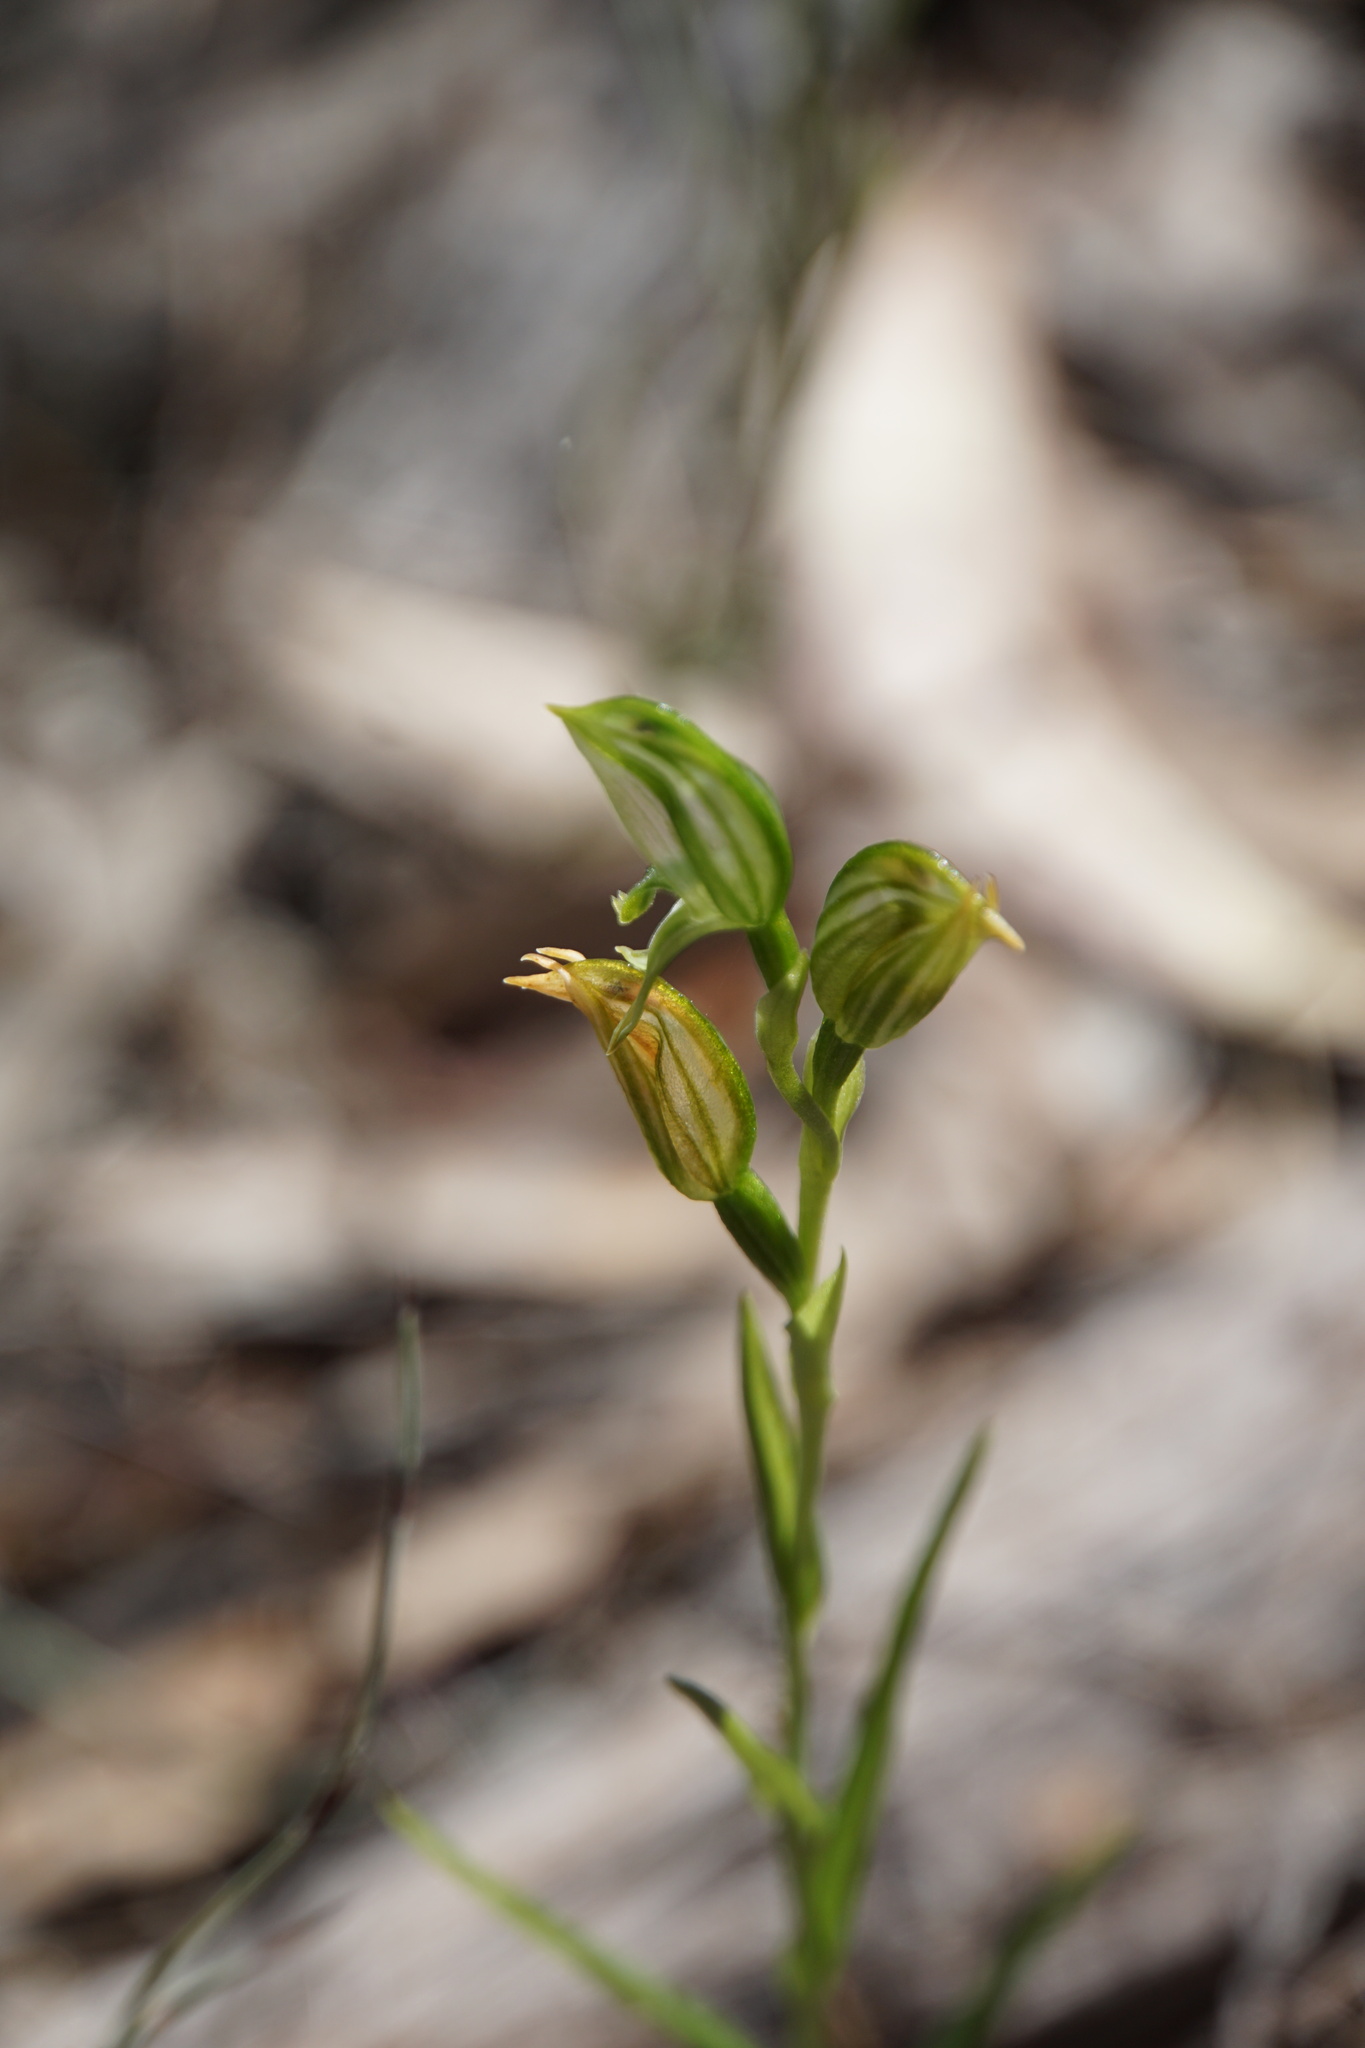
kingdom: Plantae
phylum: Tracheophyta
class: Liliopsida
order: Asparagales
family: Orchidaceae
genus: Pterostylis
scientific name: Pterostylis prasina
